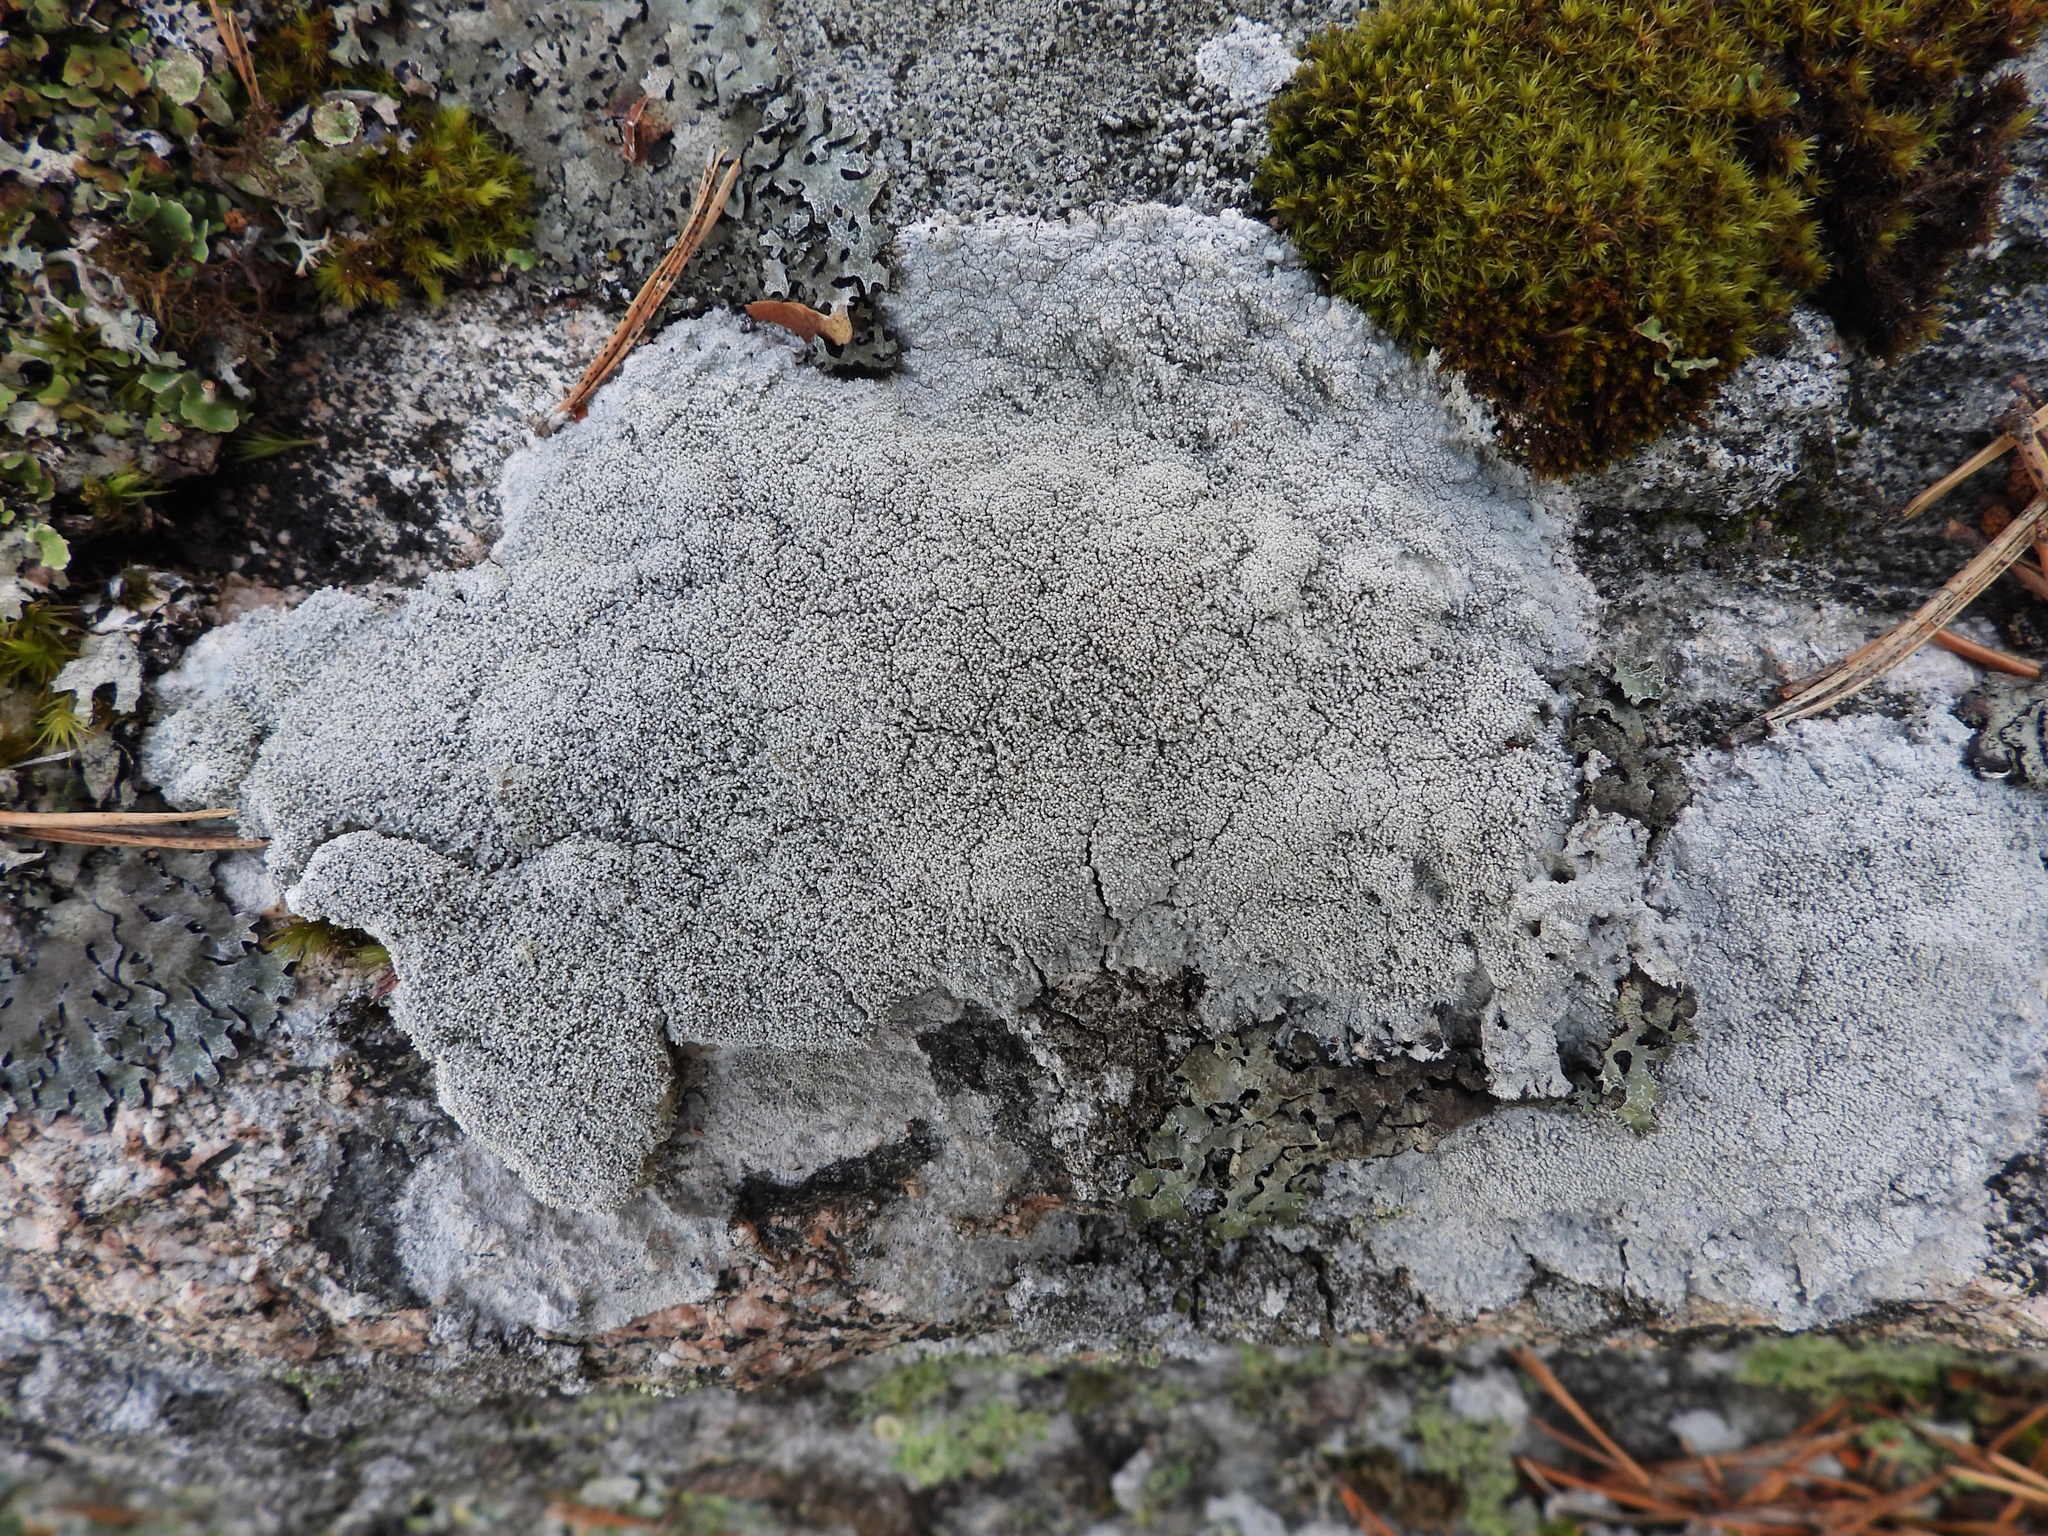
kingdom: Fungi
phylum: Ascomycota
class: Lecanoromycetes
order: Pertusariales
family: Pertusariaceae
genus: Lepra
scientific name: Lepra corallina
